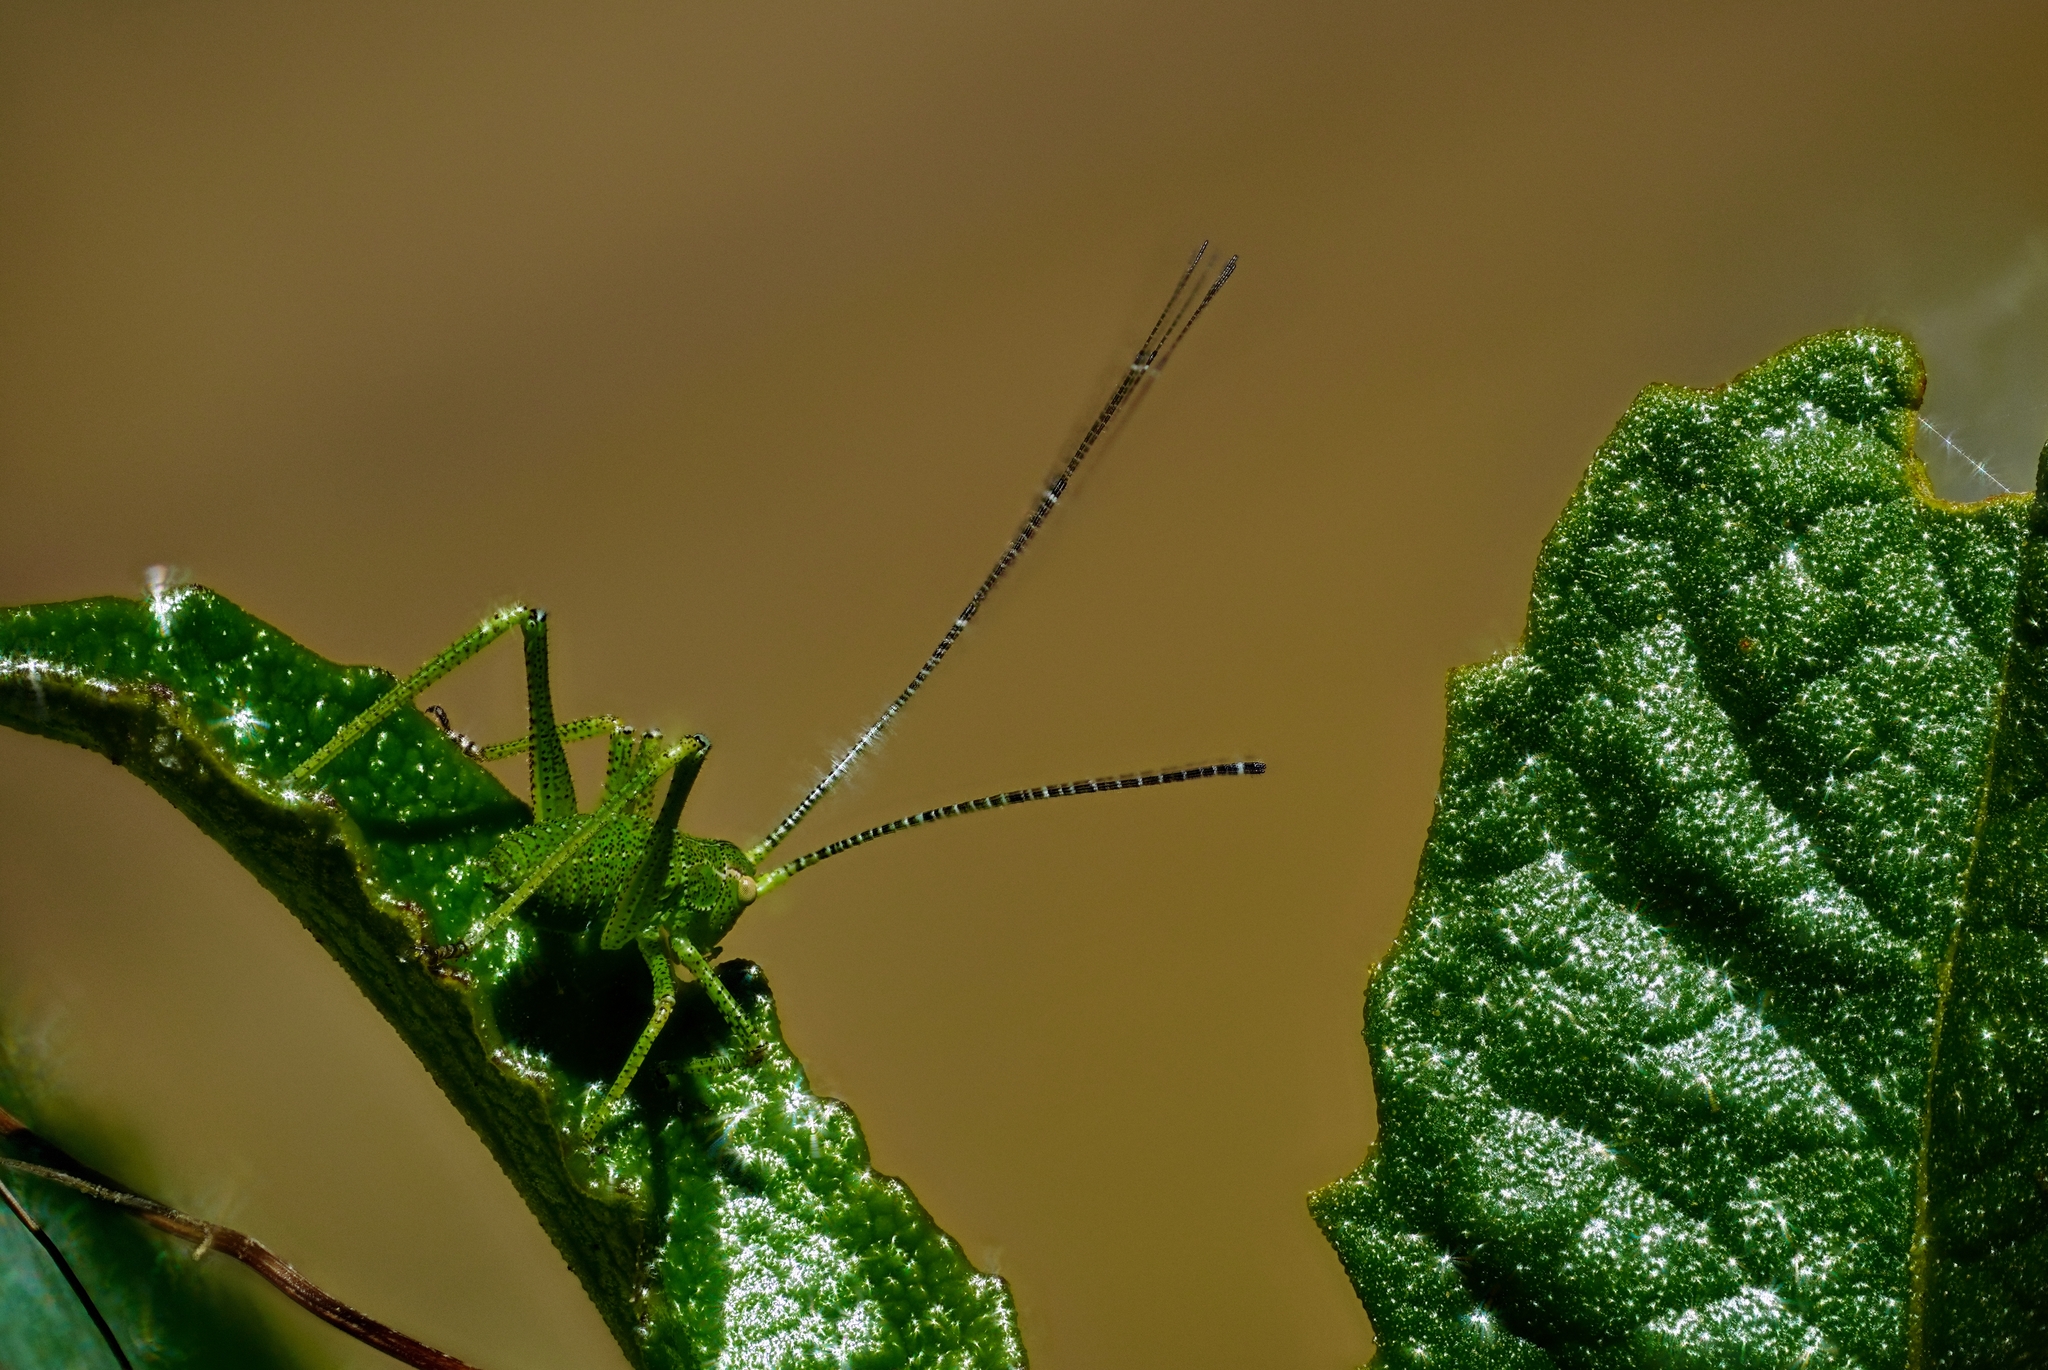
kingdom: Animalia
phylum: Arthropoda
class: Insecta
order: Orthoptera
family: Tettigoniidae
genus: Platylyra
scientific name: Platylyra californica
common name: Chaparral false katydid
